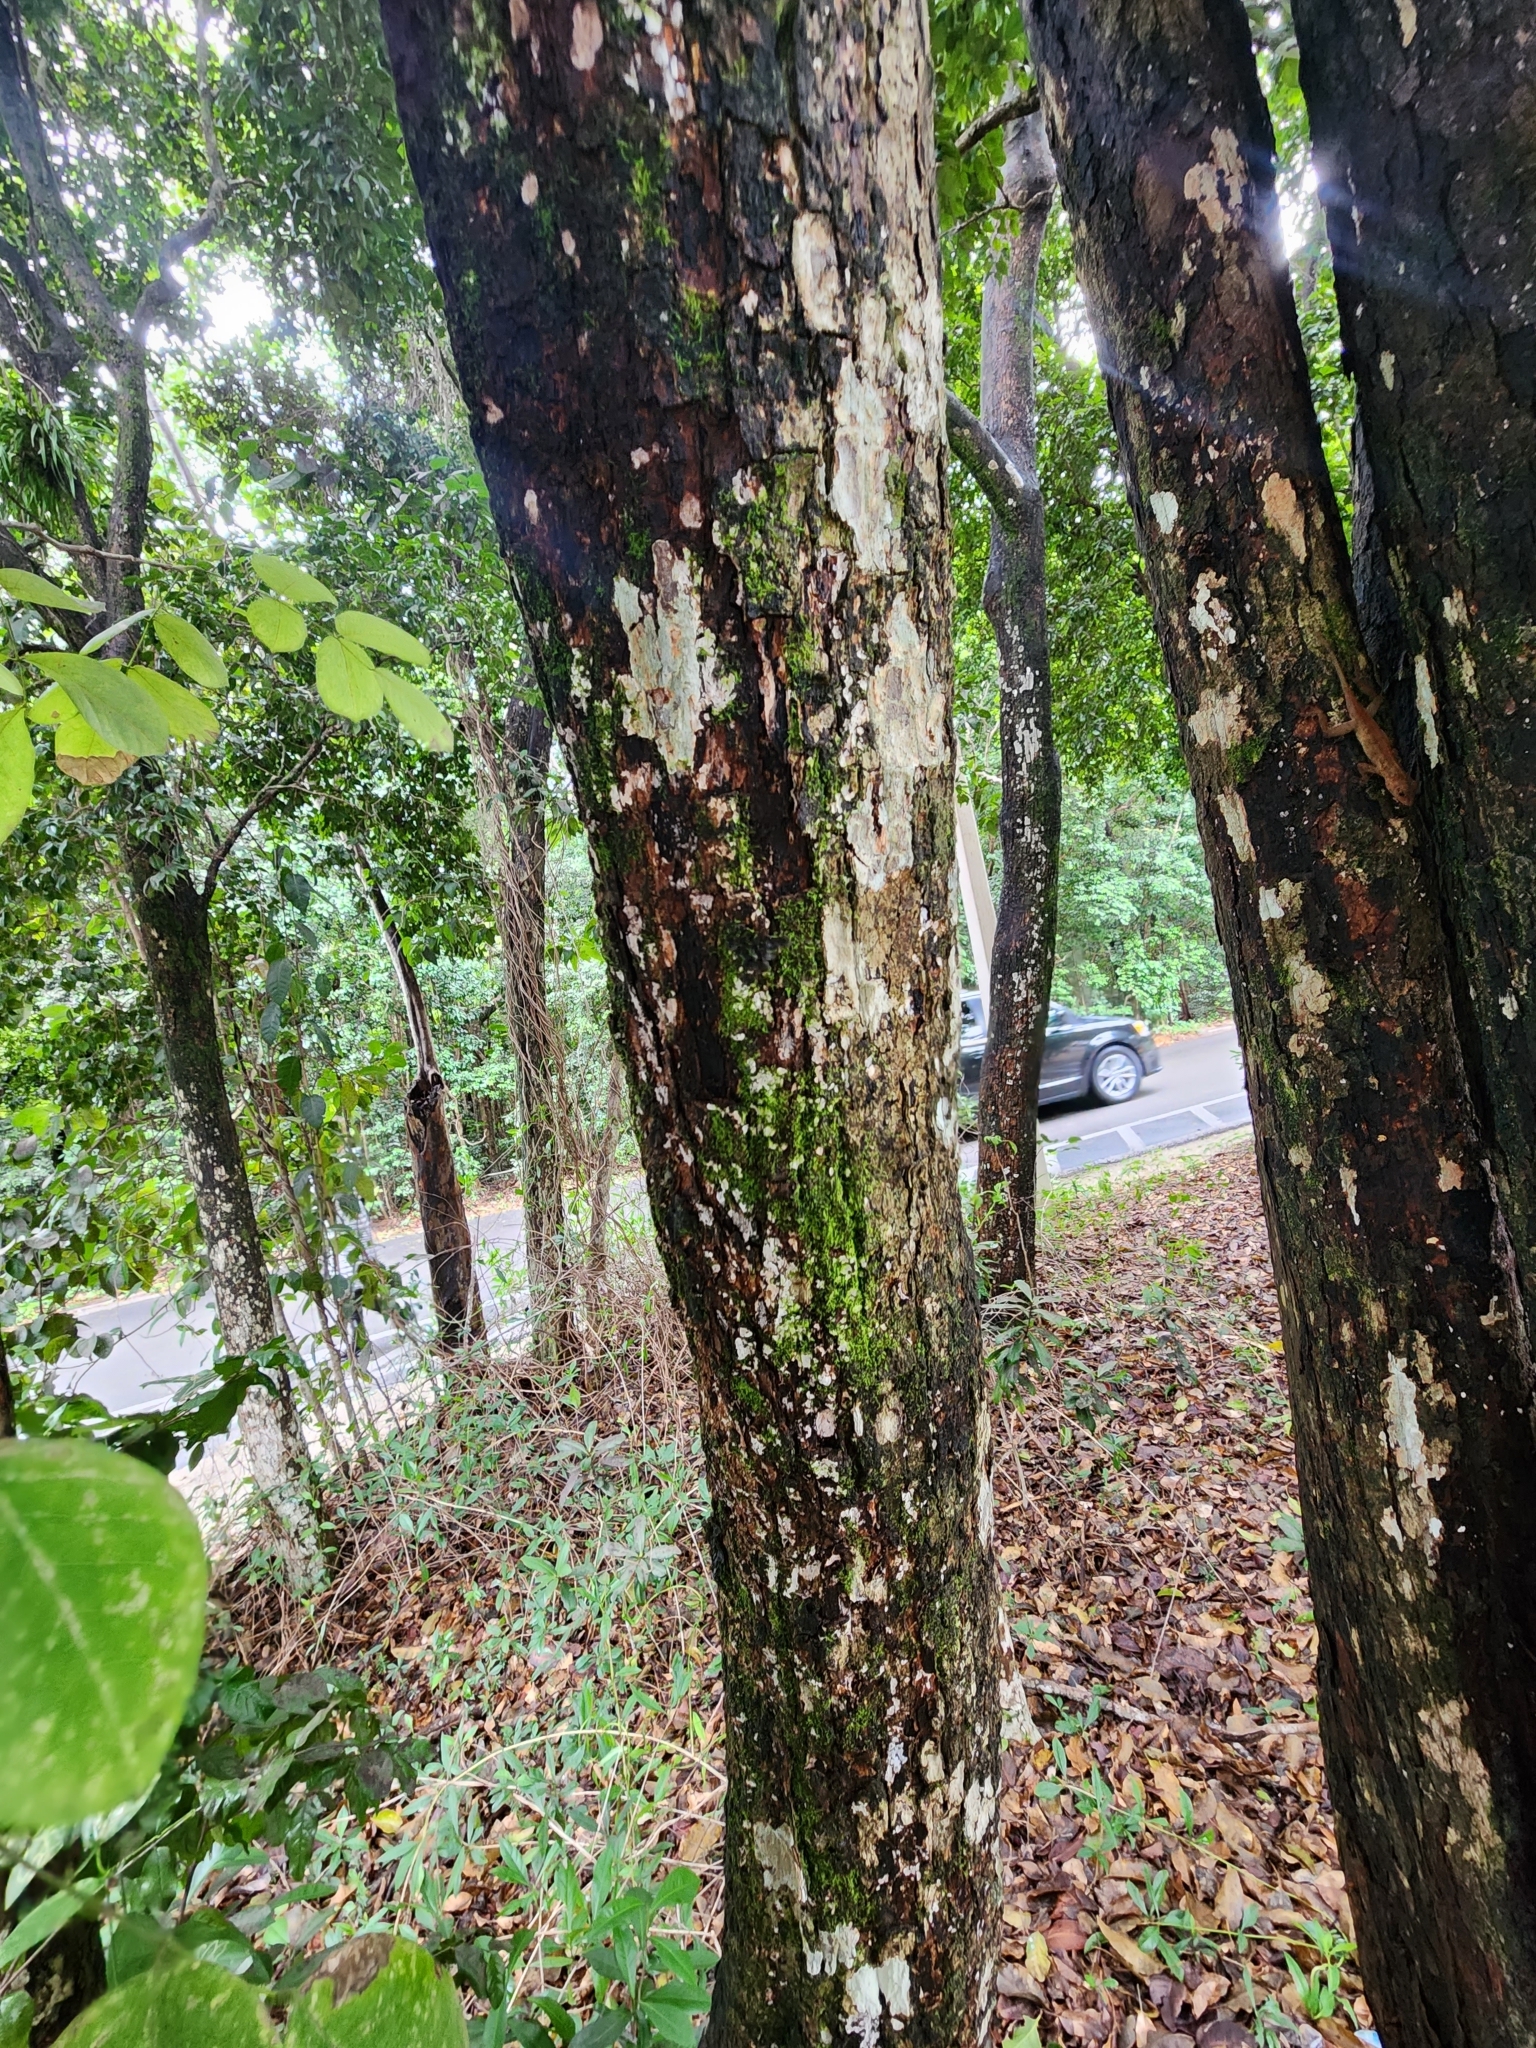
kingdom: Plantae
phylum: Tracheophyta
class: Magnoliopsida
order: Myrtales
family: Myrtaceae
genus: Eugenia
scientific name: Eugenia confusa
